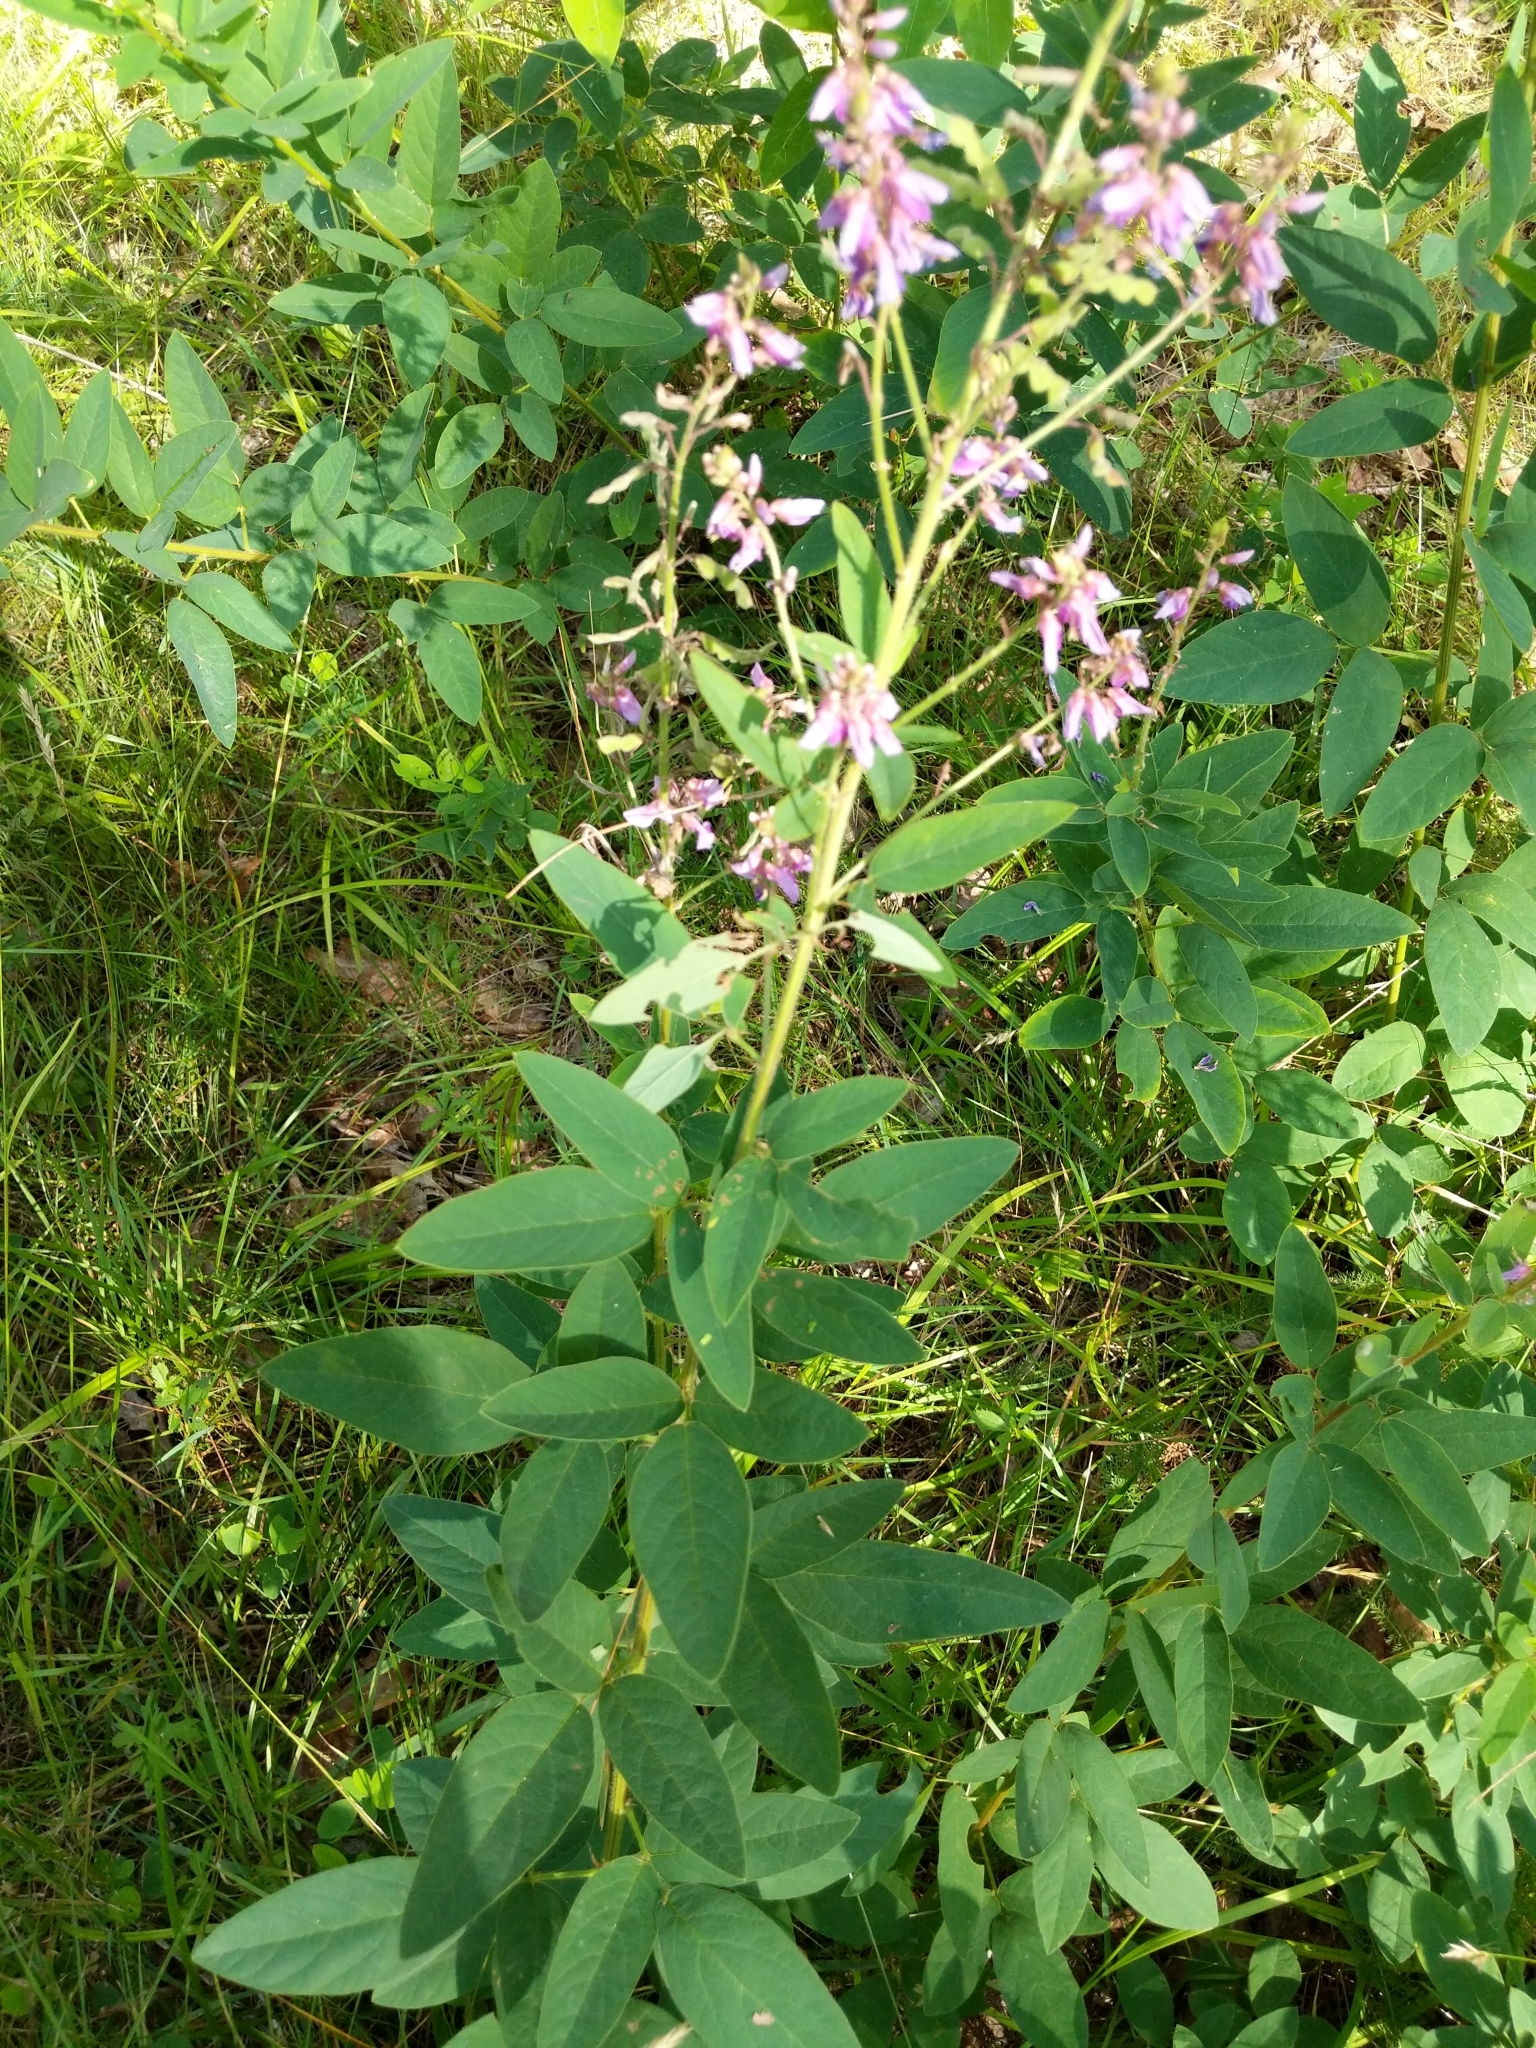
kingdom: Plantae
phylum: Tracheophyta
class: Magnoliopsida
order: Fabales
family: Fabaceae
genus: Desmodium
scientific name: Desmodium canadense
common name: Canada tick-trefoil
